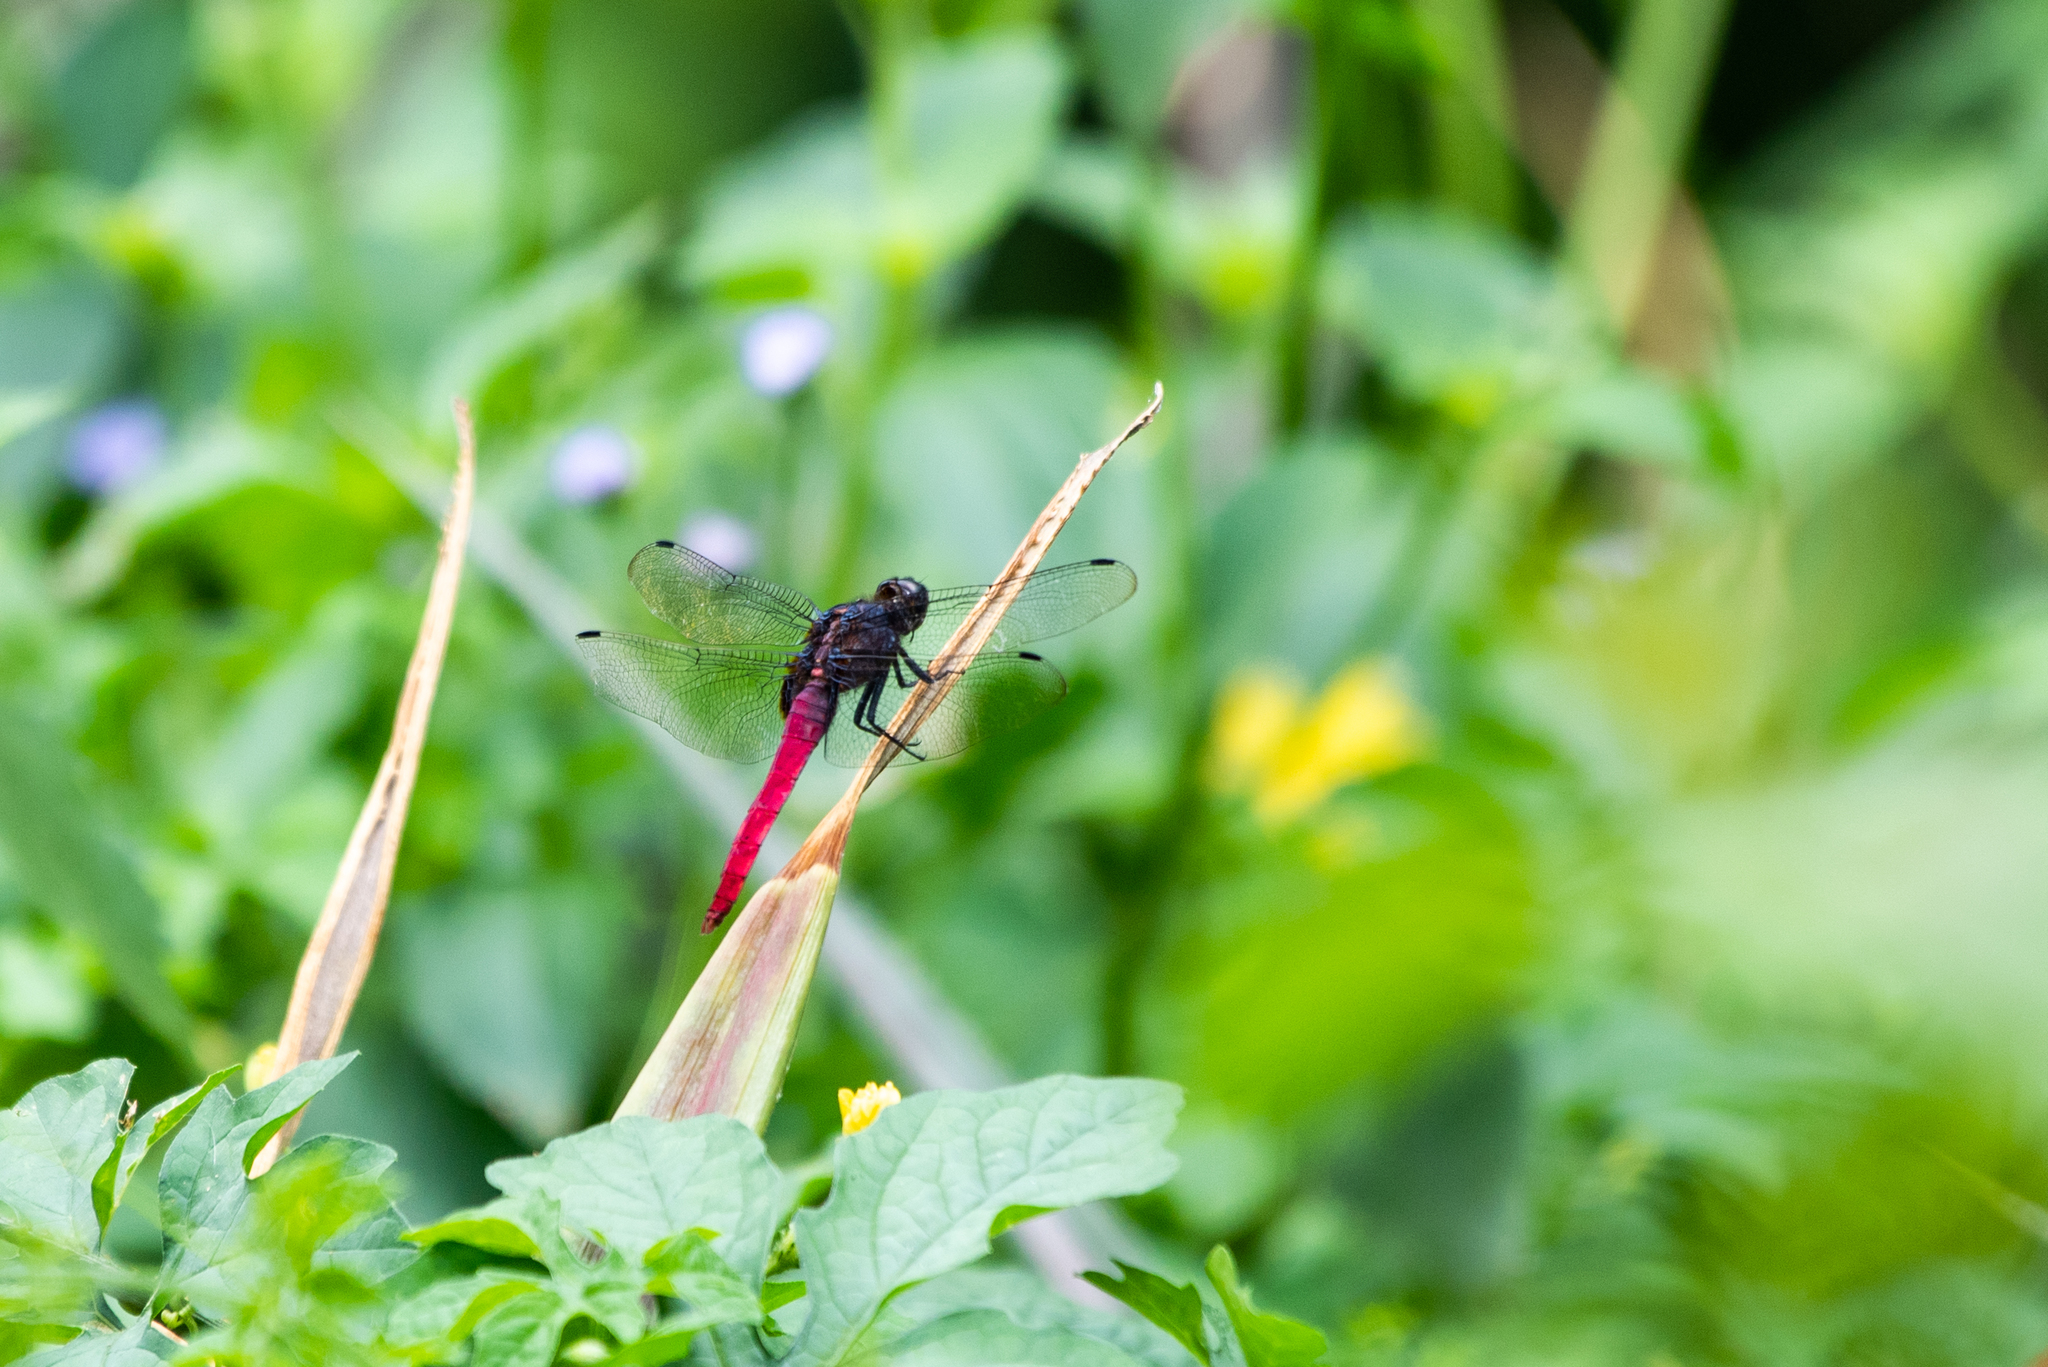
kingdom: Animalia
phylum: Arthropoda
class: Insecta
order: Odonata
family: Libellulidae
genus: Orthetrum
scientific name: Orthetrum pruinosum
